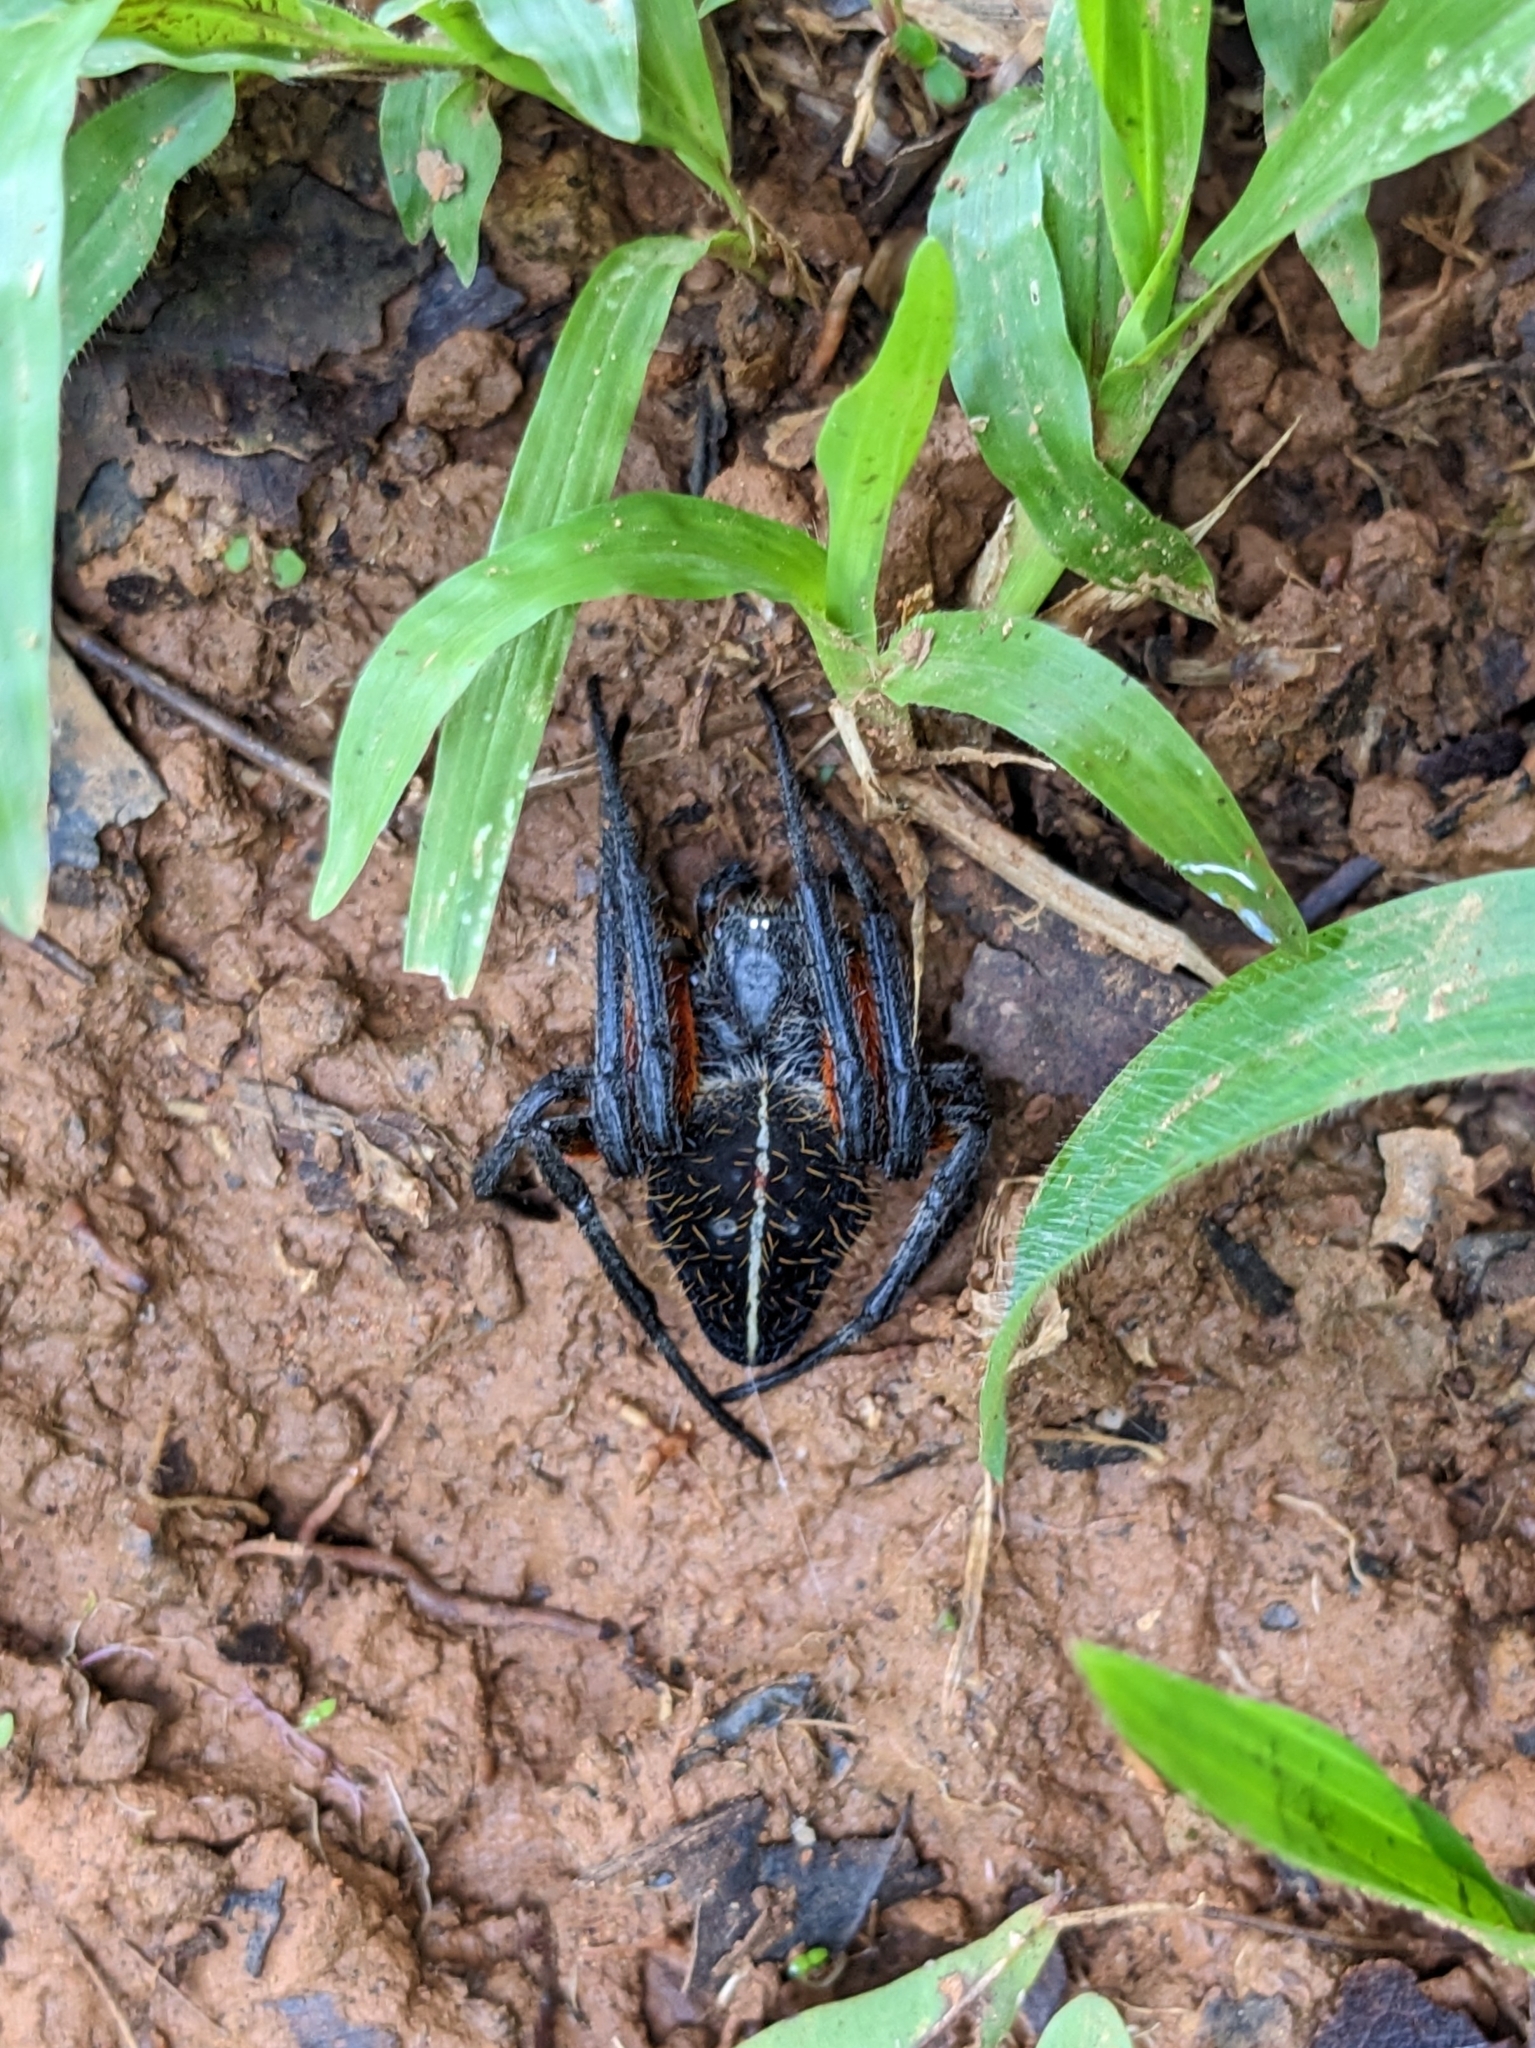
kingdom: Animalia
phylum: Arthropoda
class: Arachnida
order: Araneae
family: Araneidae
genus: Eriophora
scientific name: Eriophora fuliginea
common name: Orb weavers
